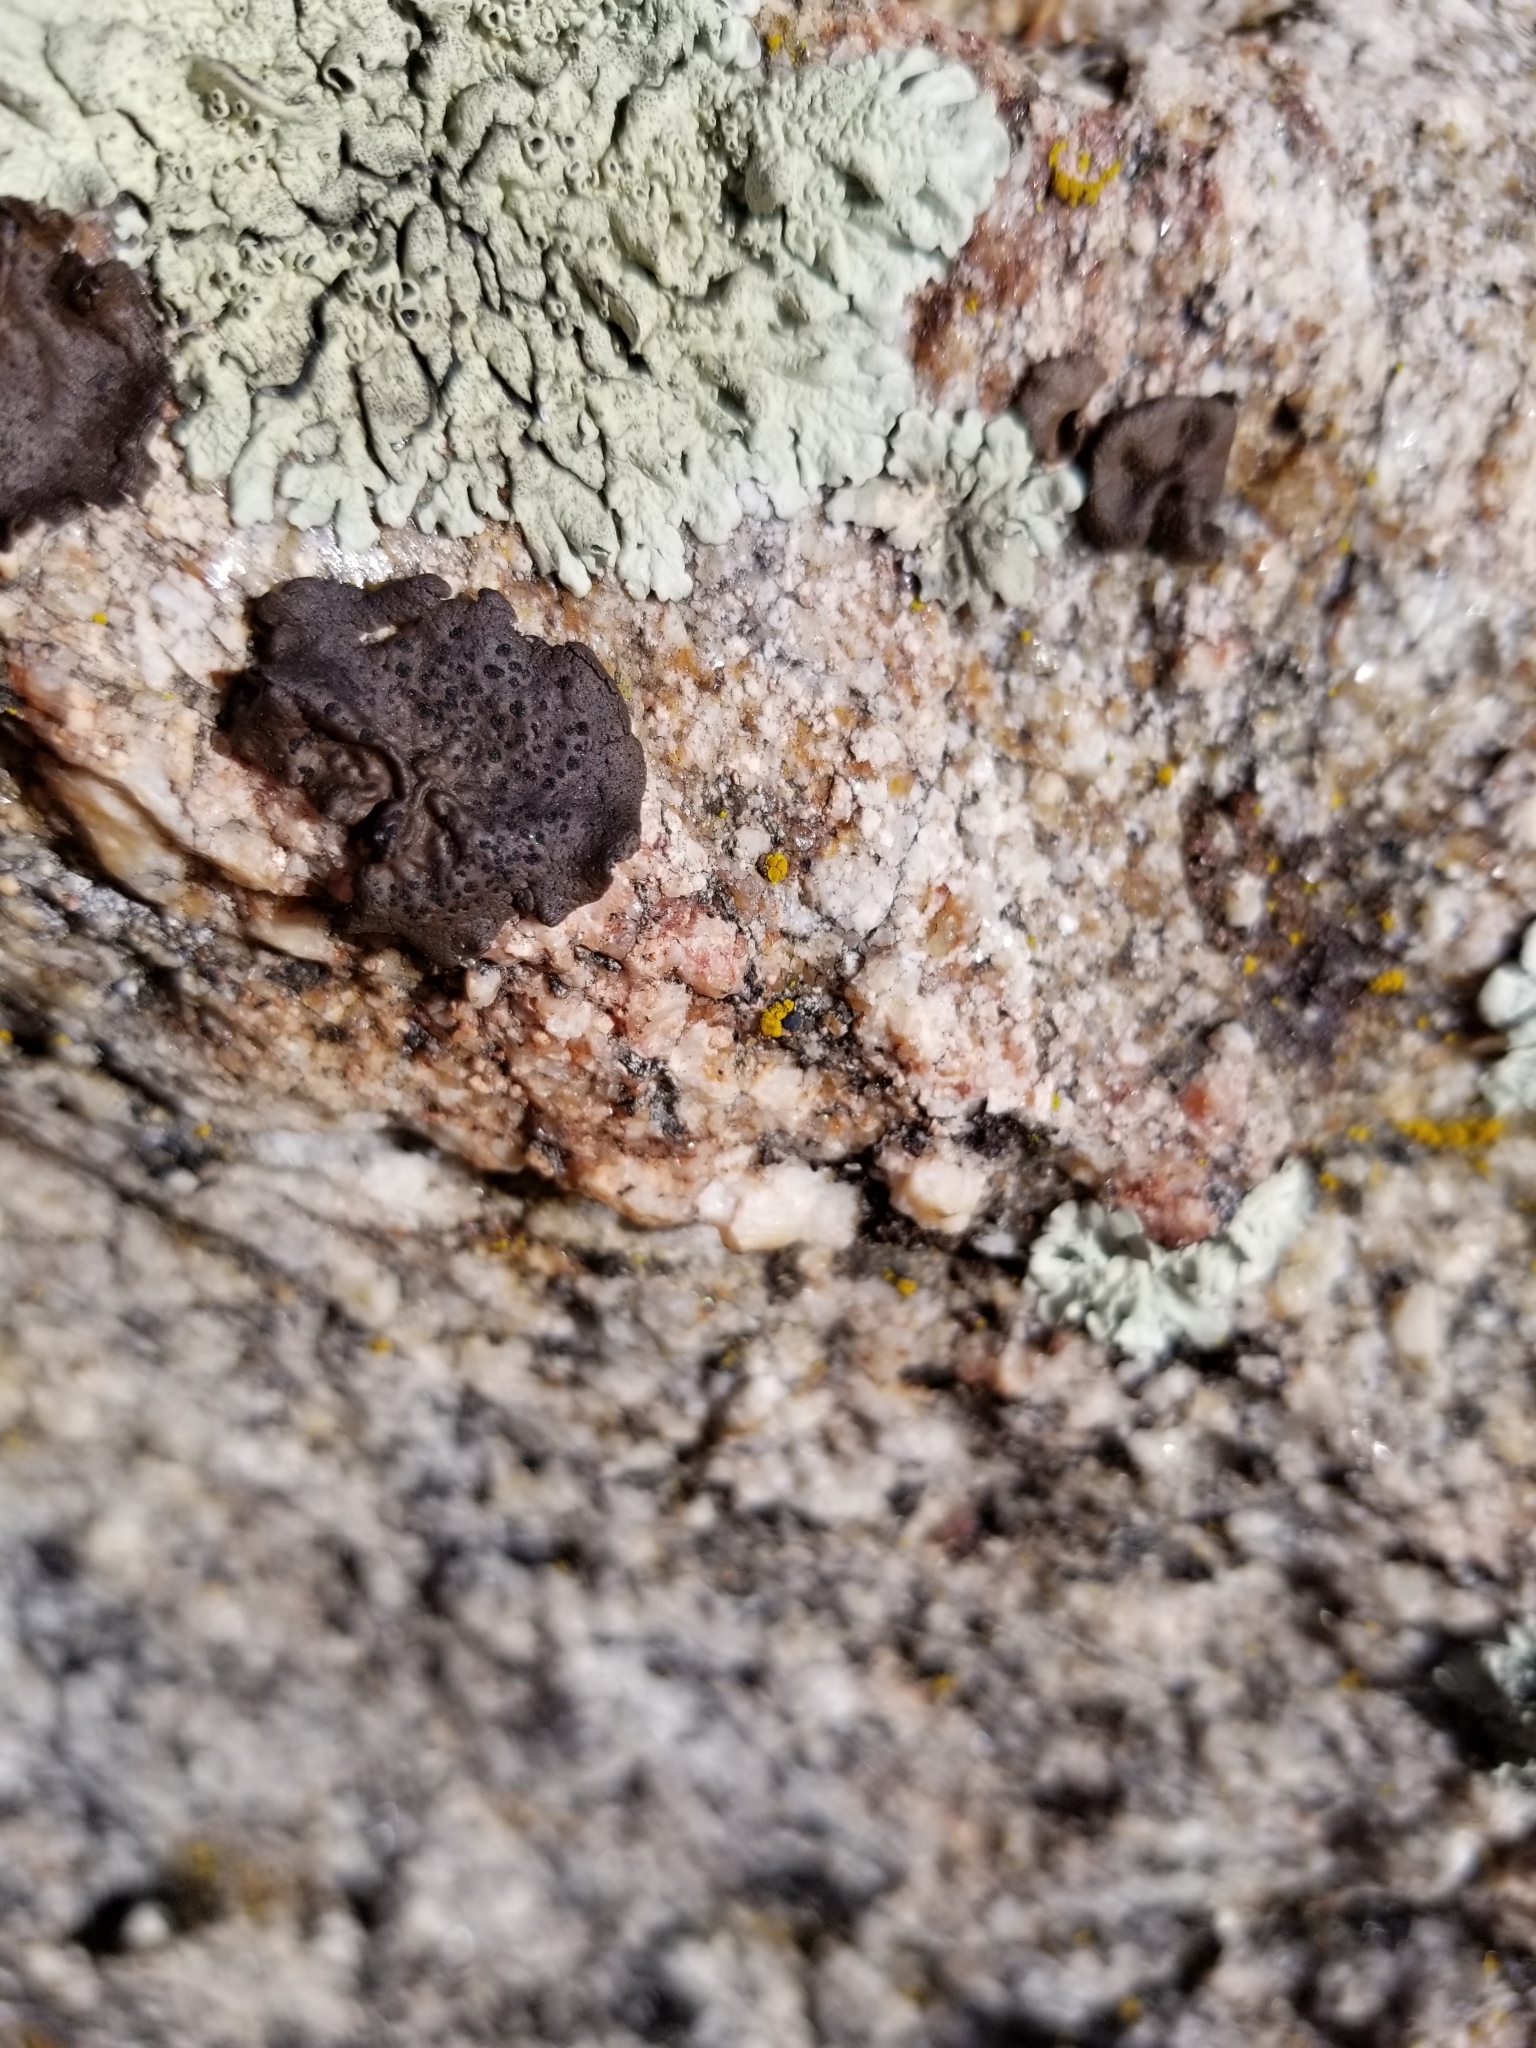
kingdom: Fungi
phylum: Ascomycota
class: Lecanoromycetes
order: Umbilicariales
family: Umbilicariaceae
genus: Umbilicaria
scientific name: Umbilicaria phaea
